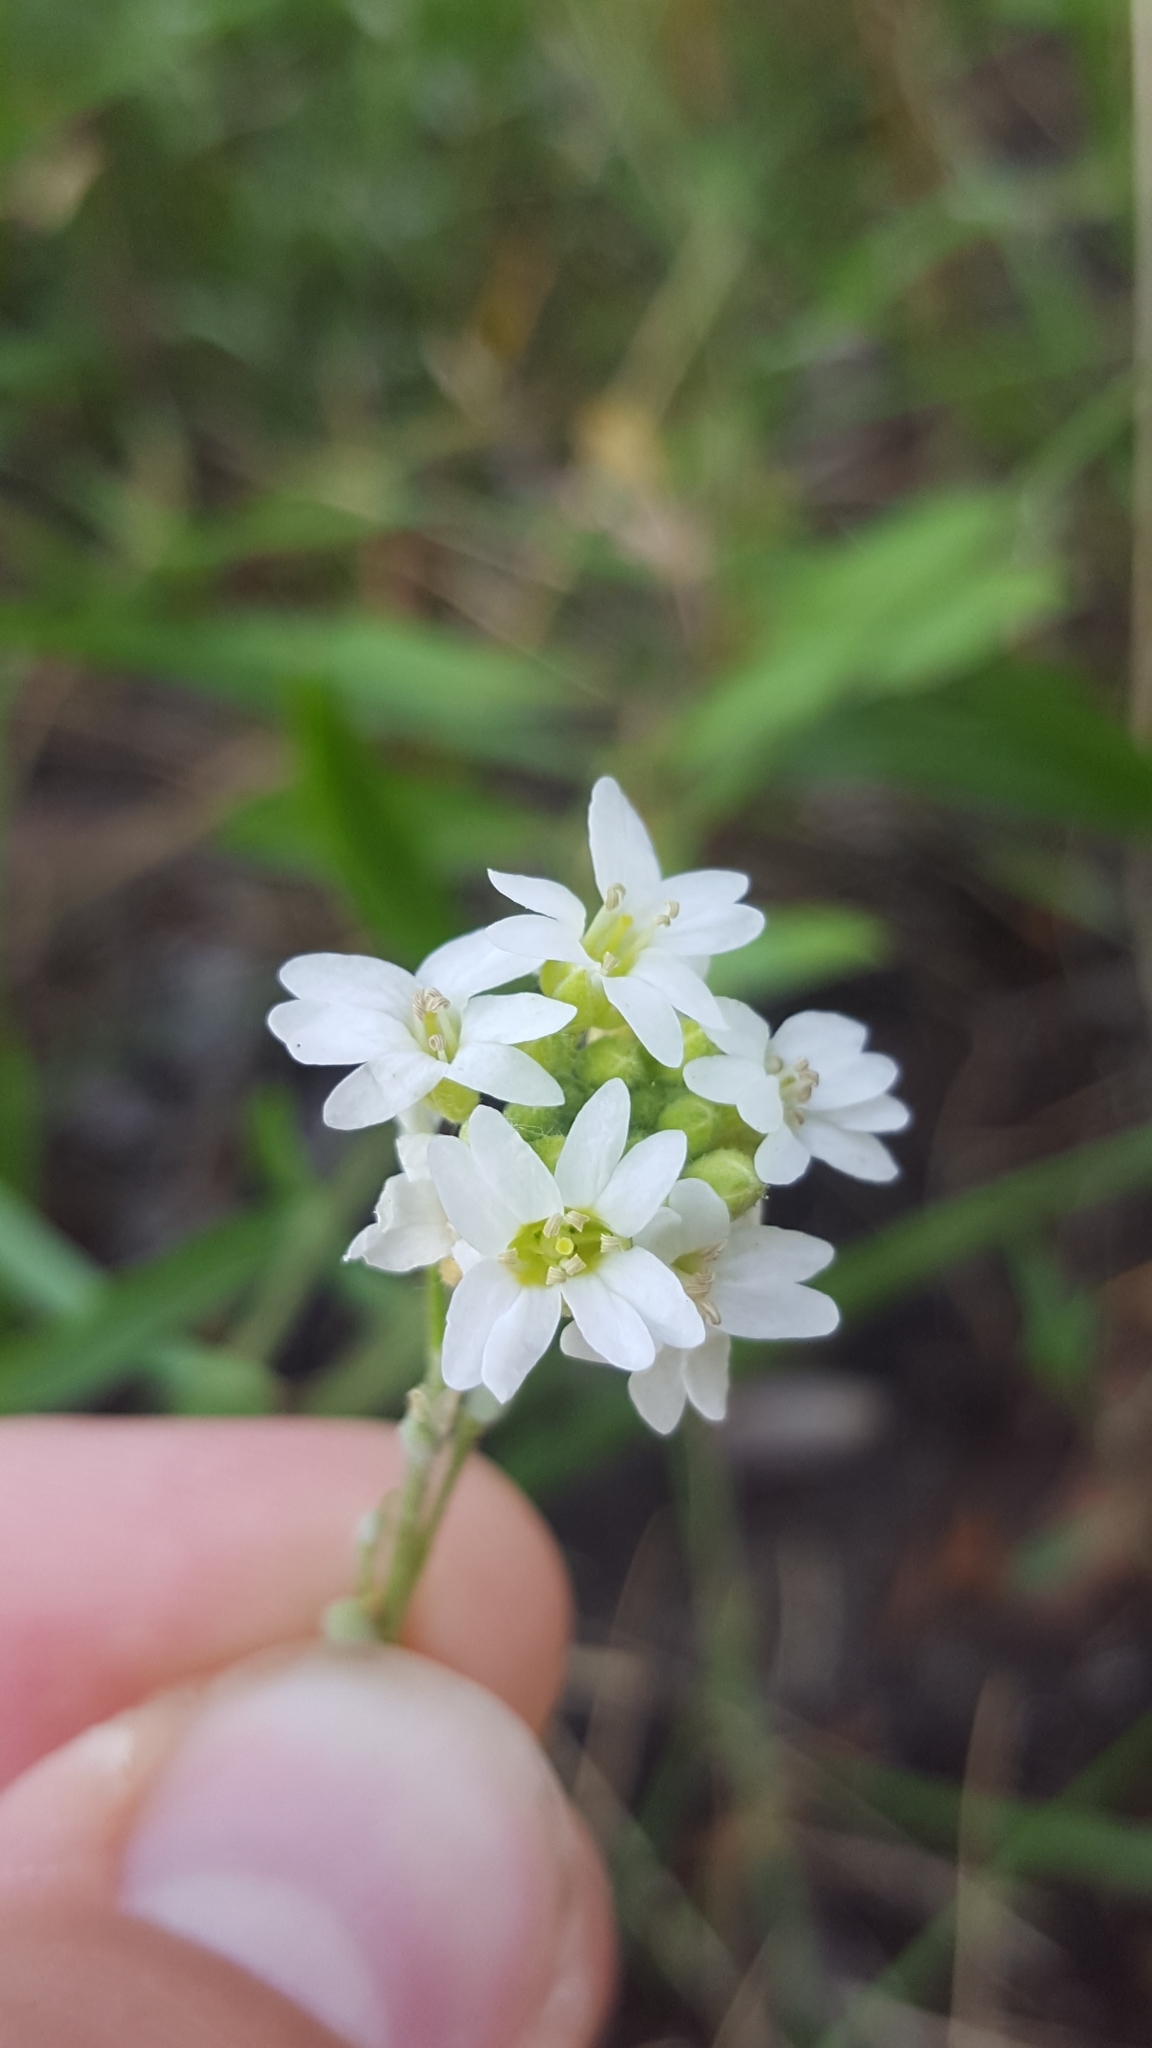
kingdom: Plantae
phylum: Tracheophyta
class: Magnoliopsida
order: Brassicales
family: Brassicaceae
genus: Berteroa
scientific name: Berteroa incana
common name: Hoary alison
